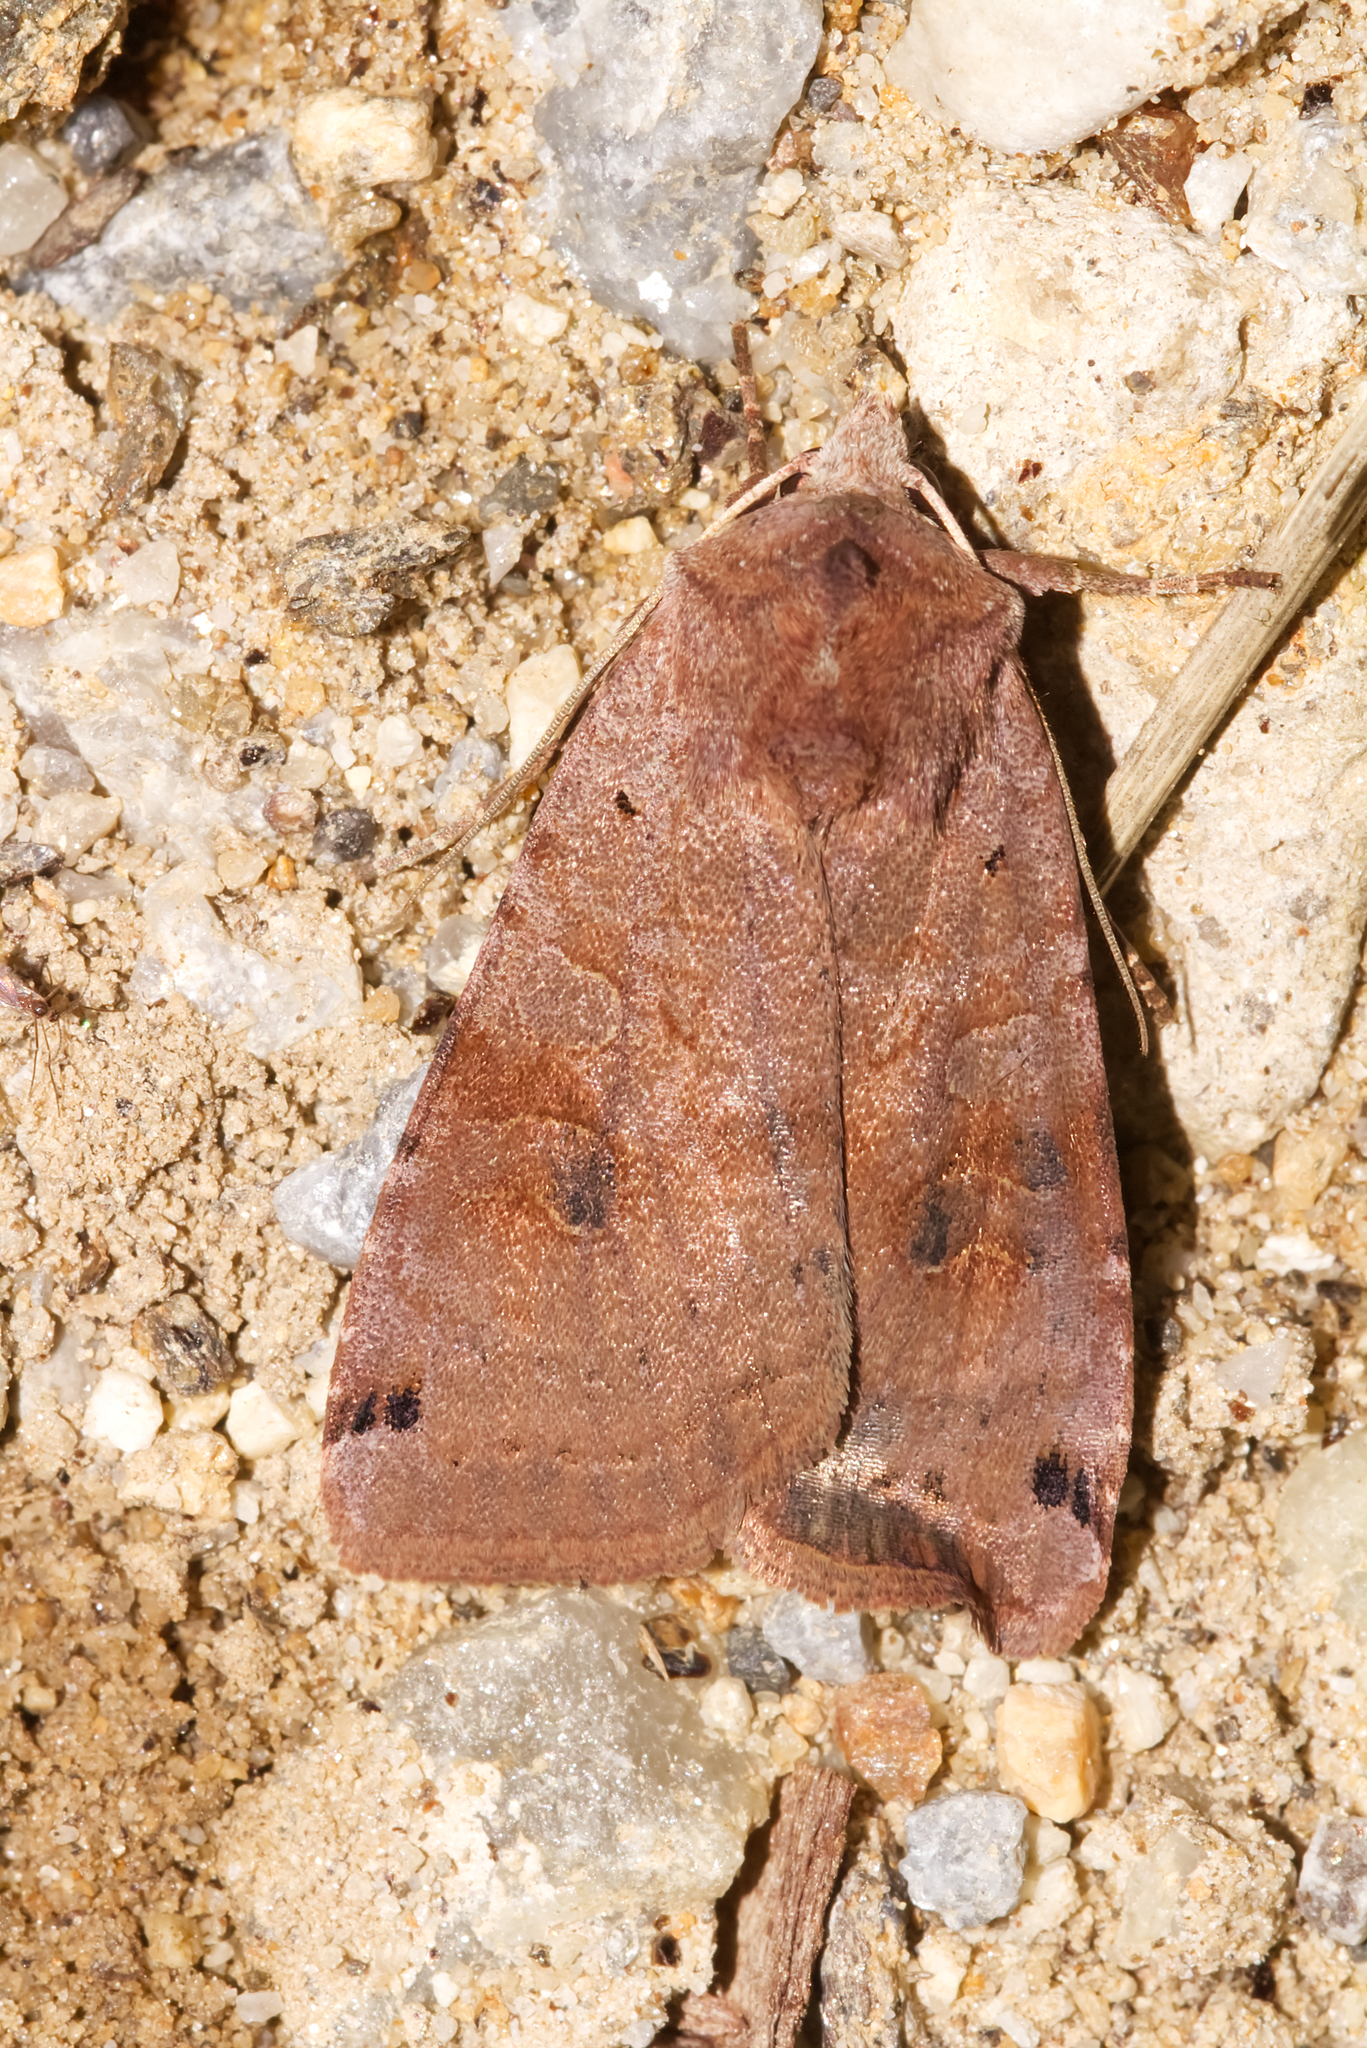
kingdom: Animalia
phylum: Arthropoda
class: Insecta
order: Lepidoptera
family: Noctuidae
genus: Xestia
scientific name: Xestia baja
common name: Dotted clay
